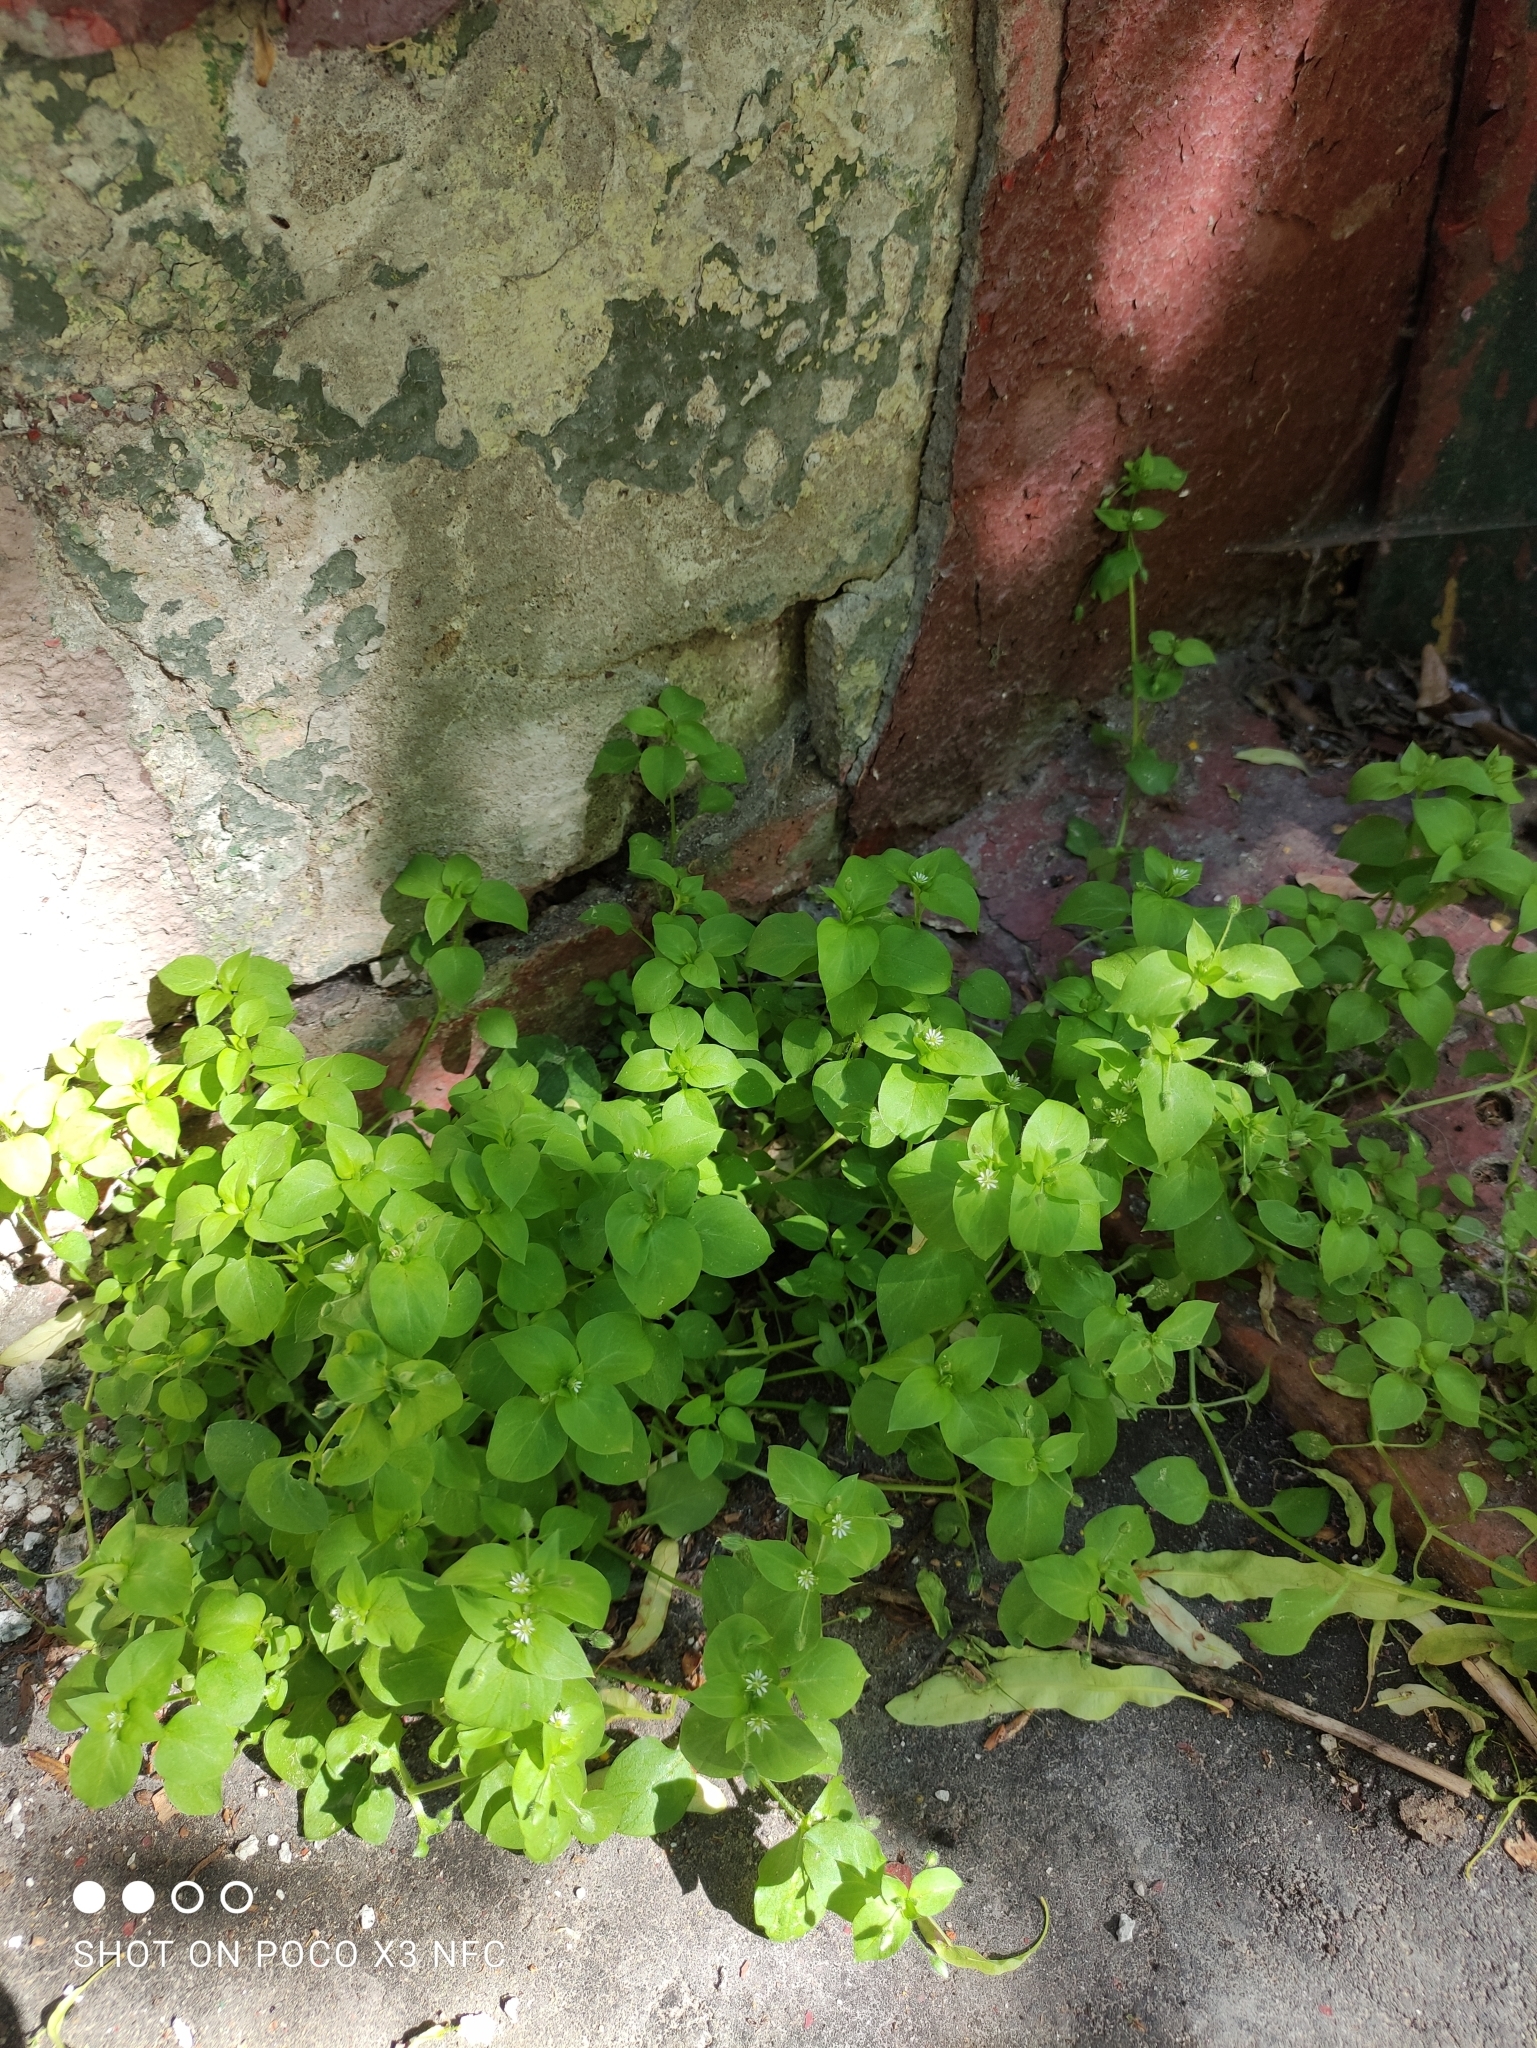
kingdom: Plantae
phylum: Tracheophyta
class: Magnoliopsida
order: Caryophyllales
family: Caryophyllaceae
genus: Stellaria
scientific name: Stellaria media
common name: Common chickweed
